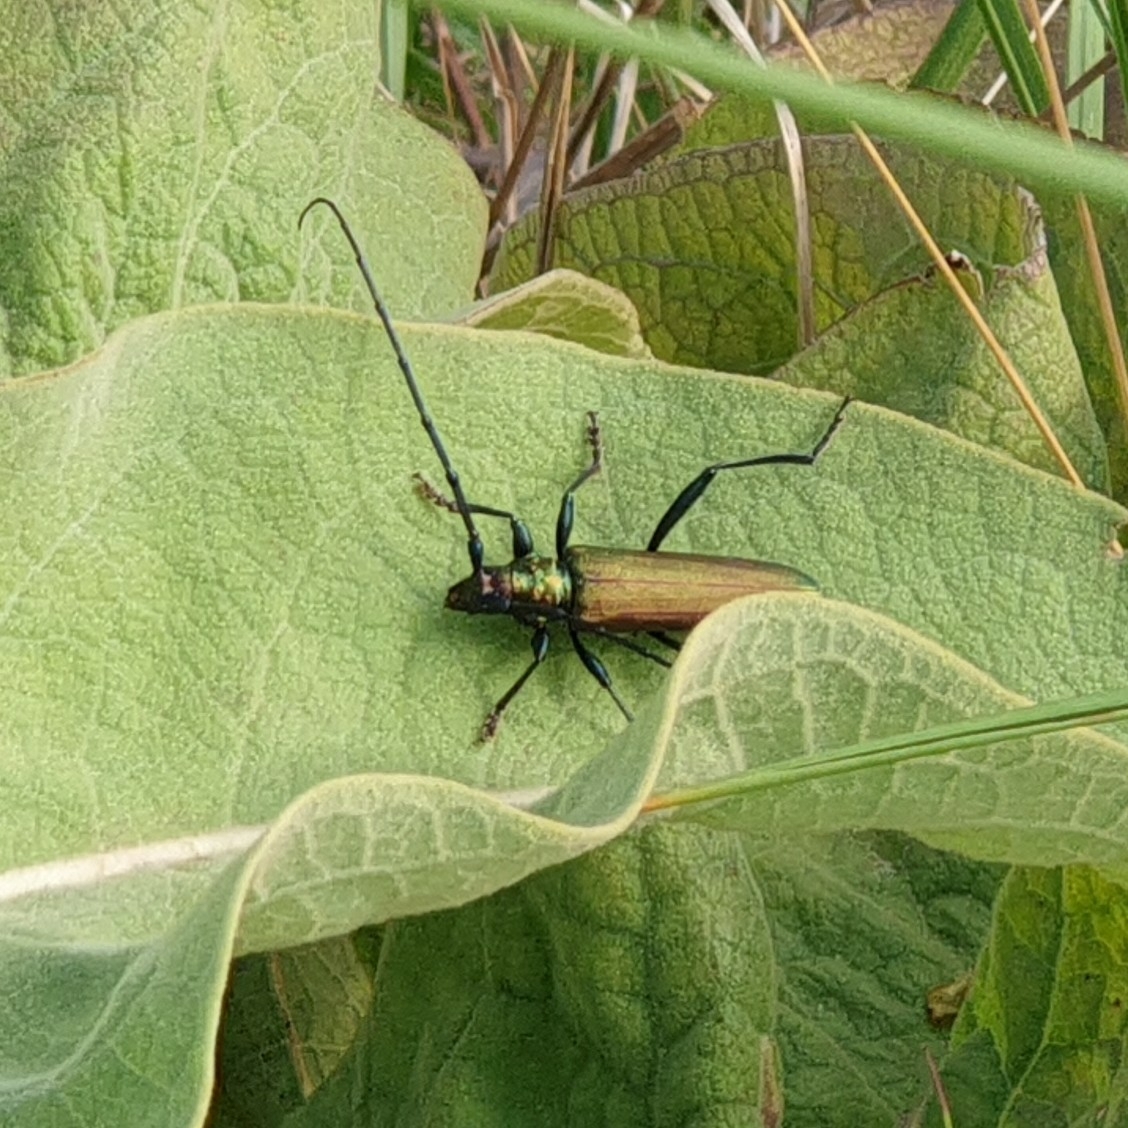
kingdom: Animalia
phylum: Arthropoda
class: Insecta
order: Coleoptera
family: Cerambycidae
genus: Aromia
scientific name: Aromia moschata
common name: Musk beetle
